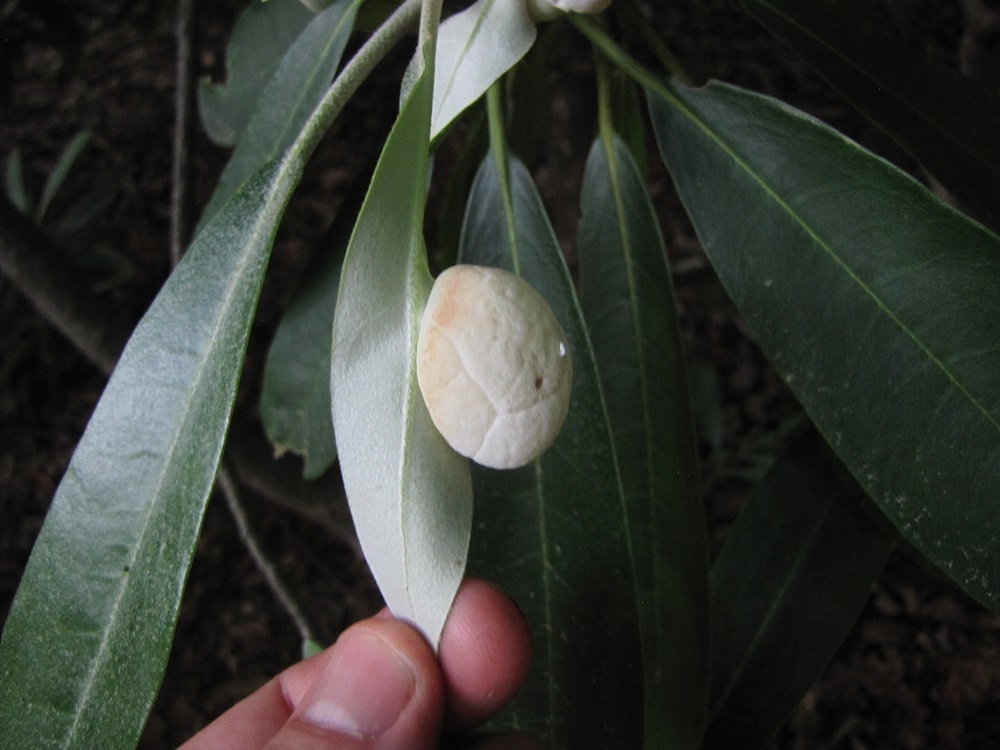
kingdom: Fungi
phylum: Basidiomycota
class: Exobasidiomycetes
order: Exobasidiales
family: Exobasidiaceae
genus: Exobasidium
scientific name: Exobasidium rhododendri
